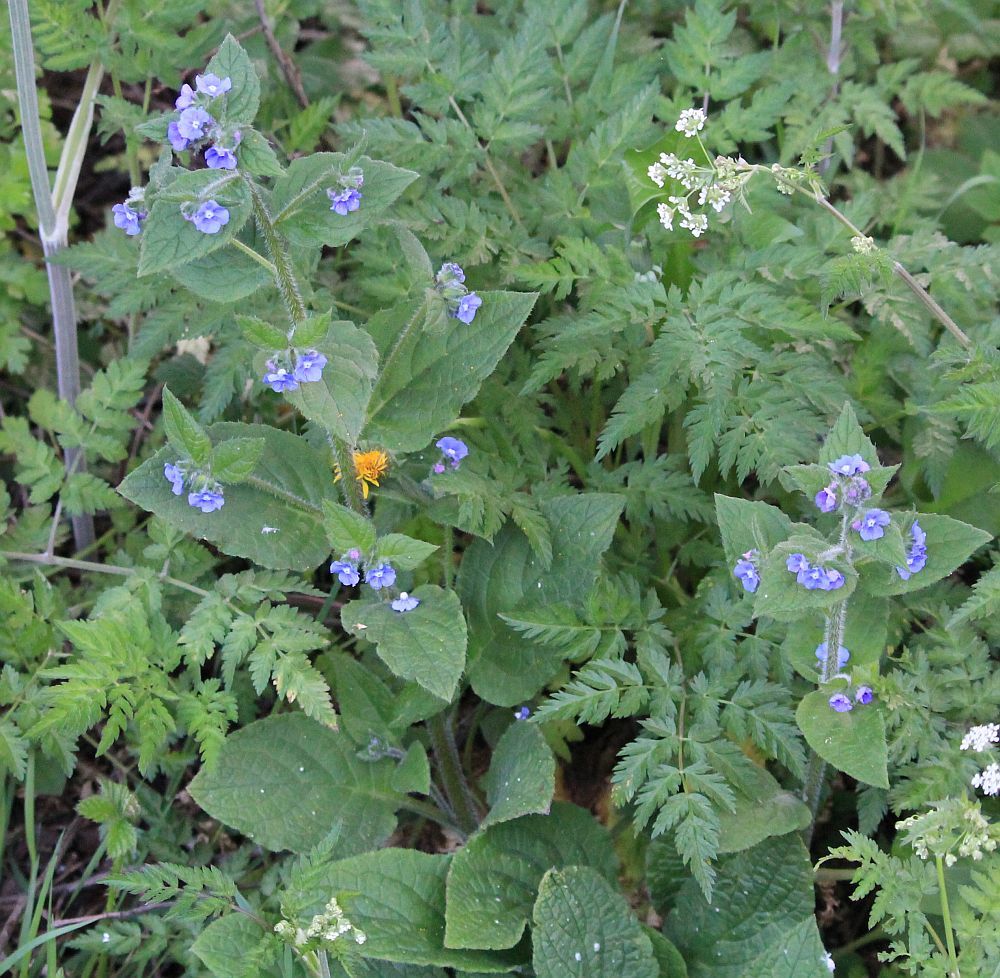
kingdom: Plantae
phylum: Tracheophyta
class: Magnoliopsida
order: Boraginales
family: Boraginaceae
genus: Pentaglottis
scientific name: Pentaglottis sempervirens
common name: Green alkanet
